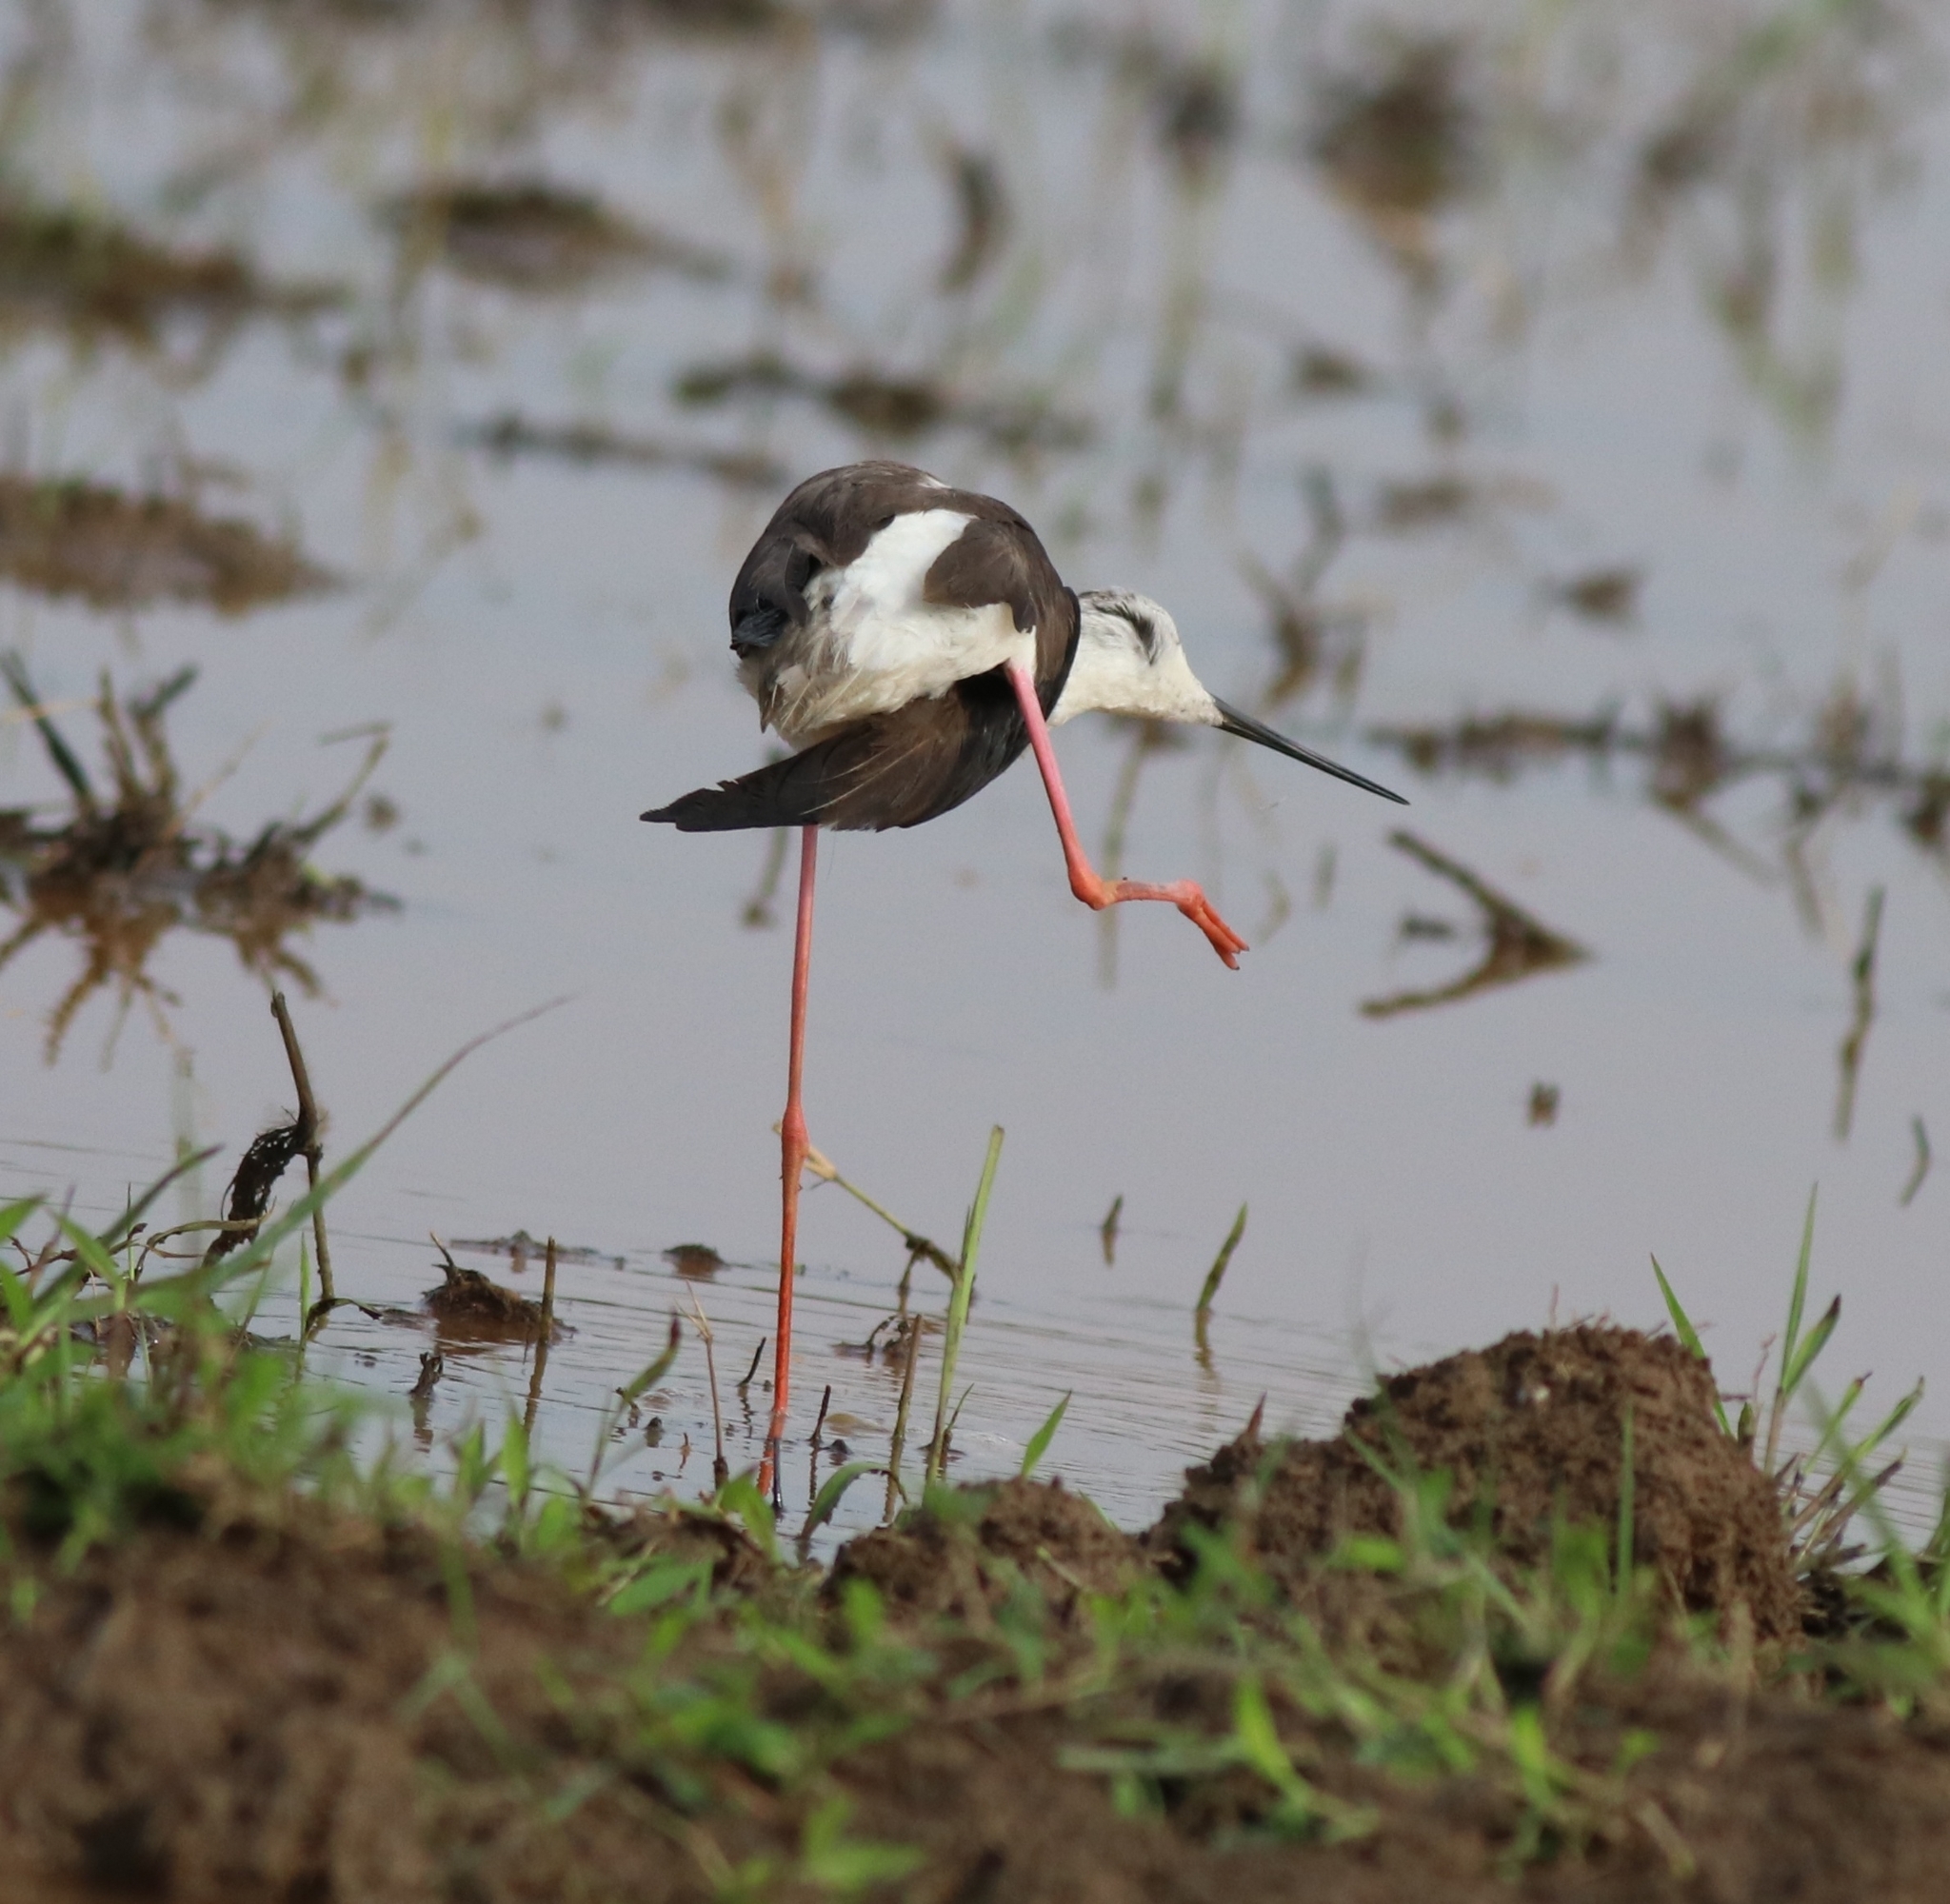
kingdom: Animalia
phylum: Chordata
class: Aves
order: Charadriiformes
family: Recurvirostridae
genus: Himantopus
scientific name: Himantopus himantopus
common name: Black-winged stilt
